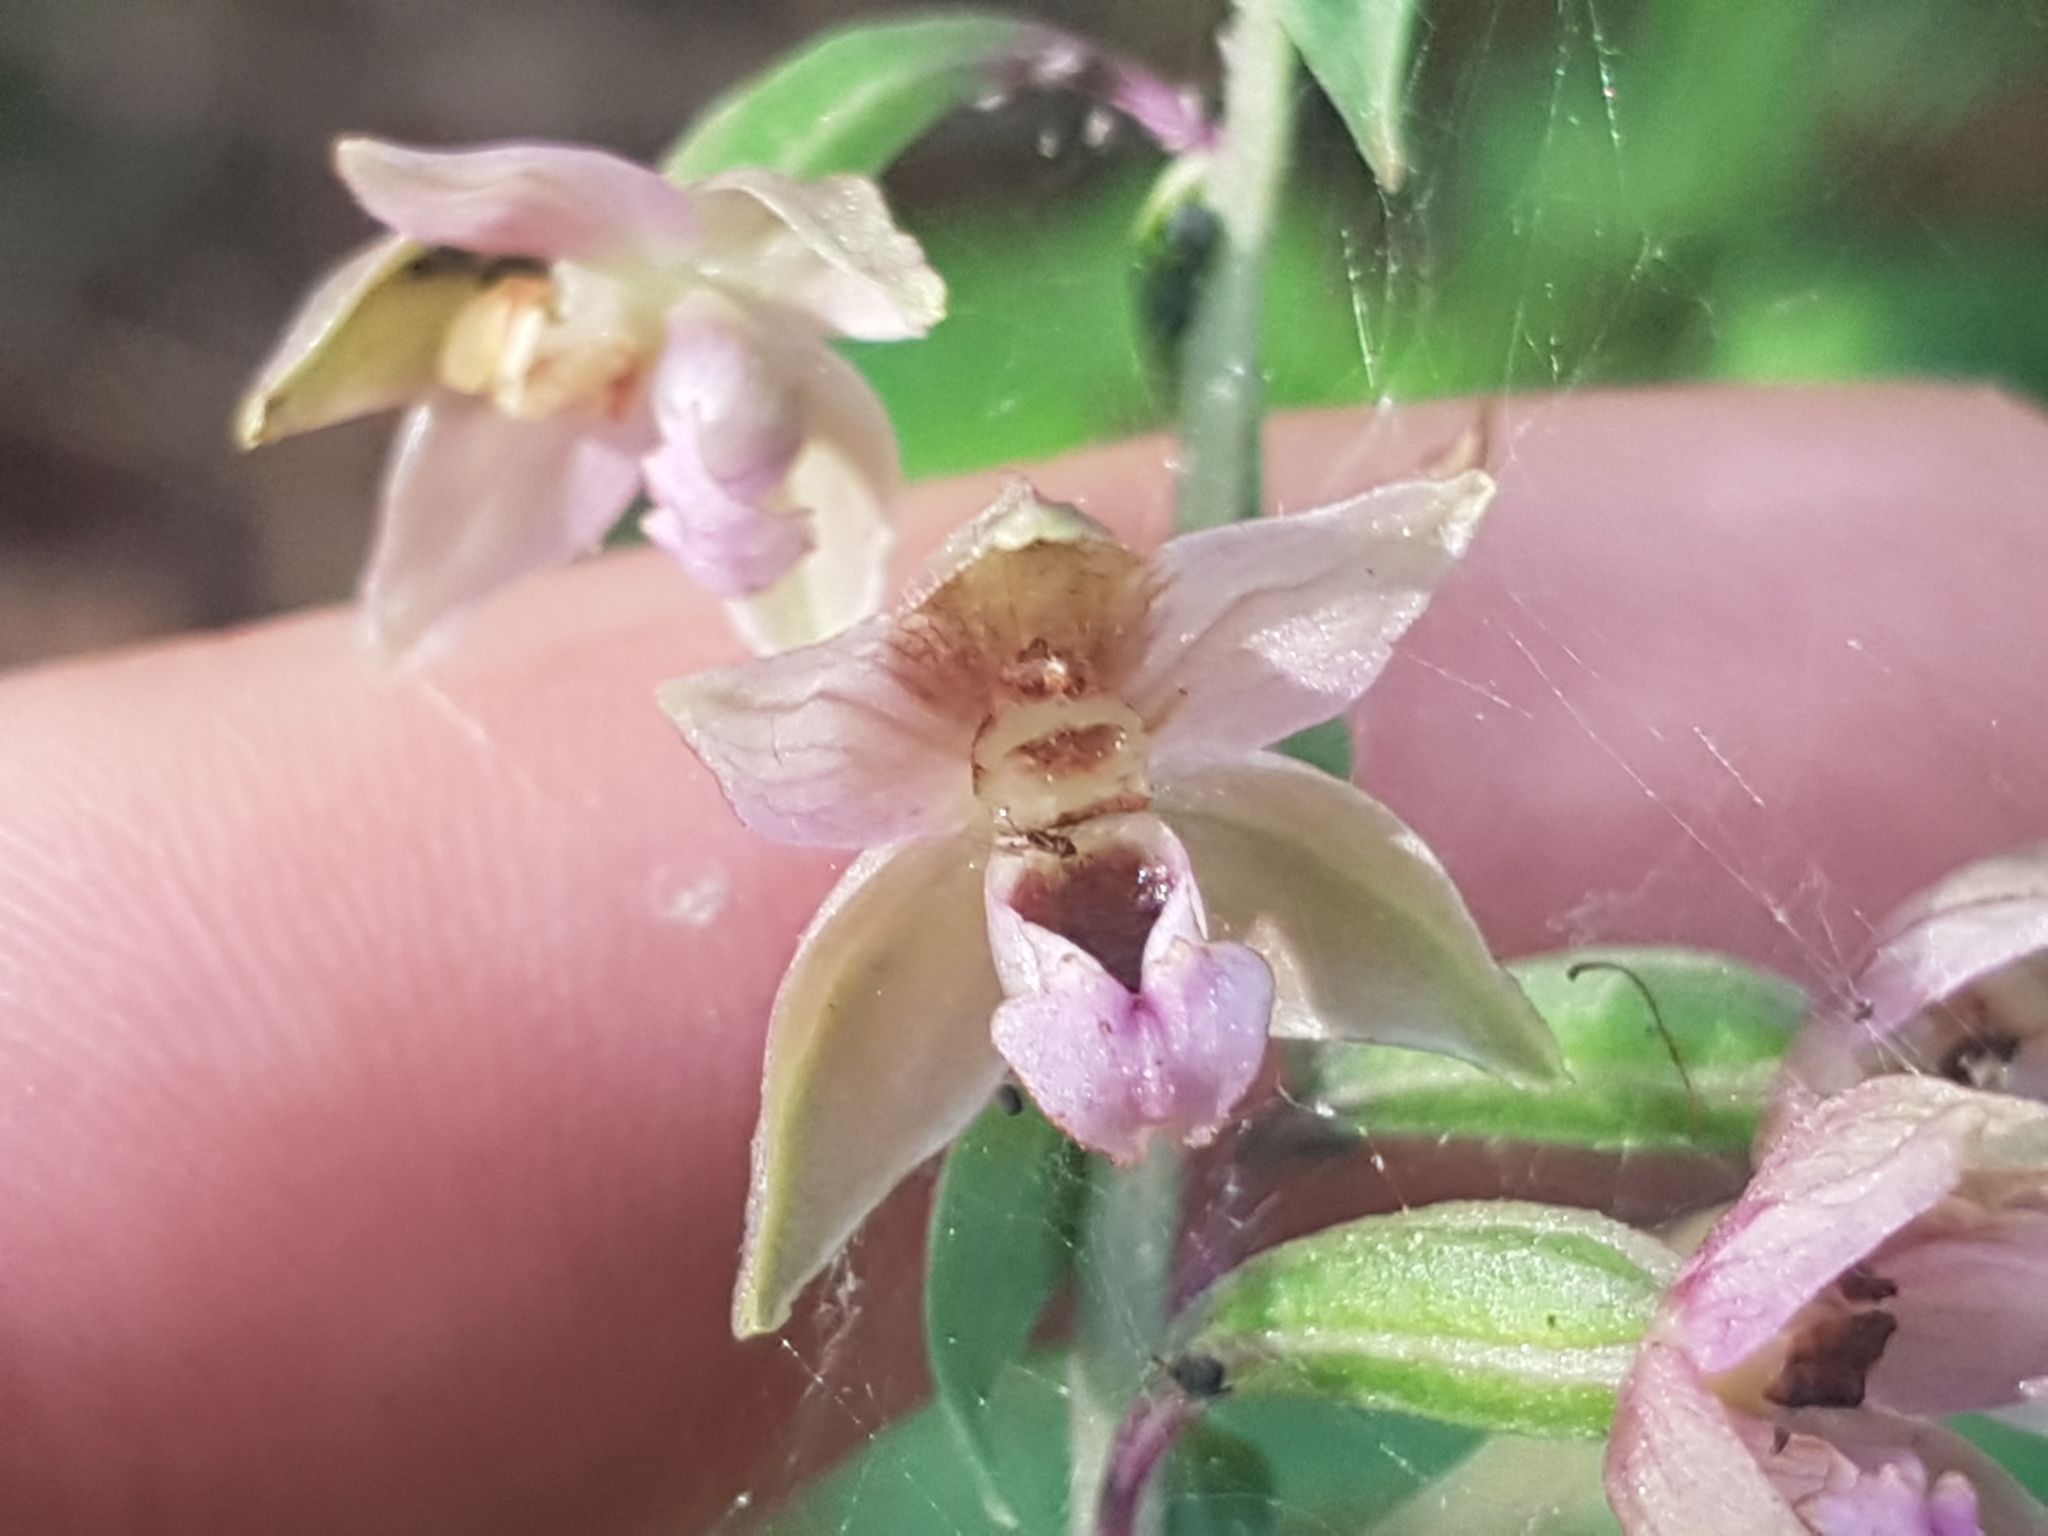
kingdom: Plantae
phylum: Tracheophyta
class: Liliopsida
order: Asparagales
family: Orchidaceae
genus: Epipactis
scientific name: Epipactis helleborine
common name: Broad-leaved helleborine
